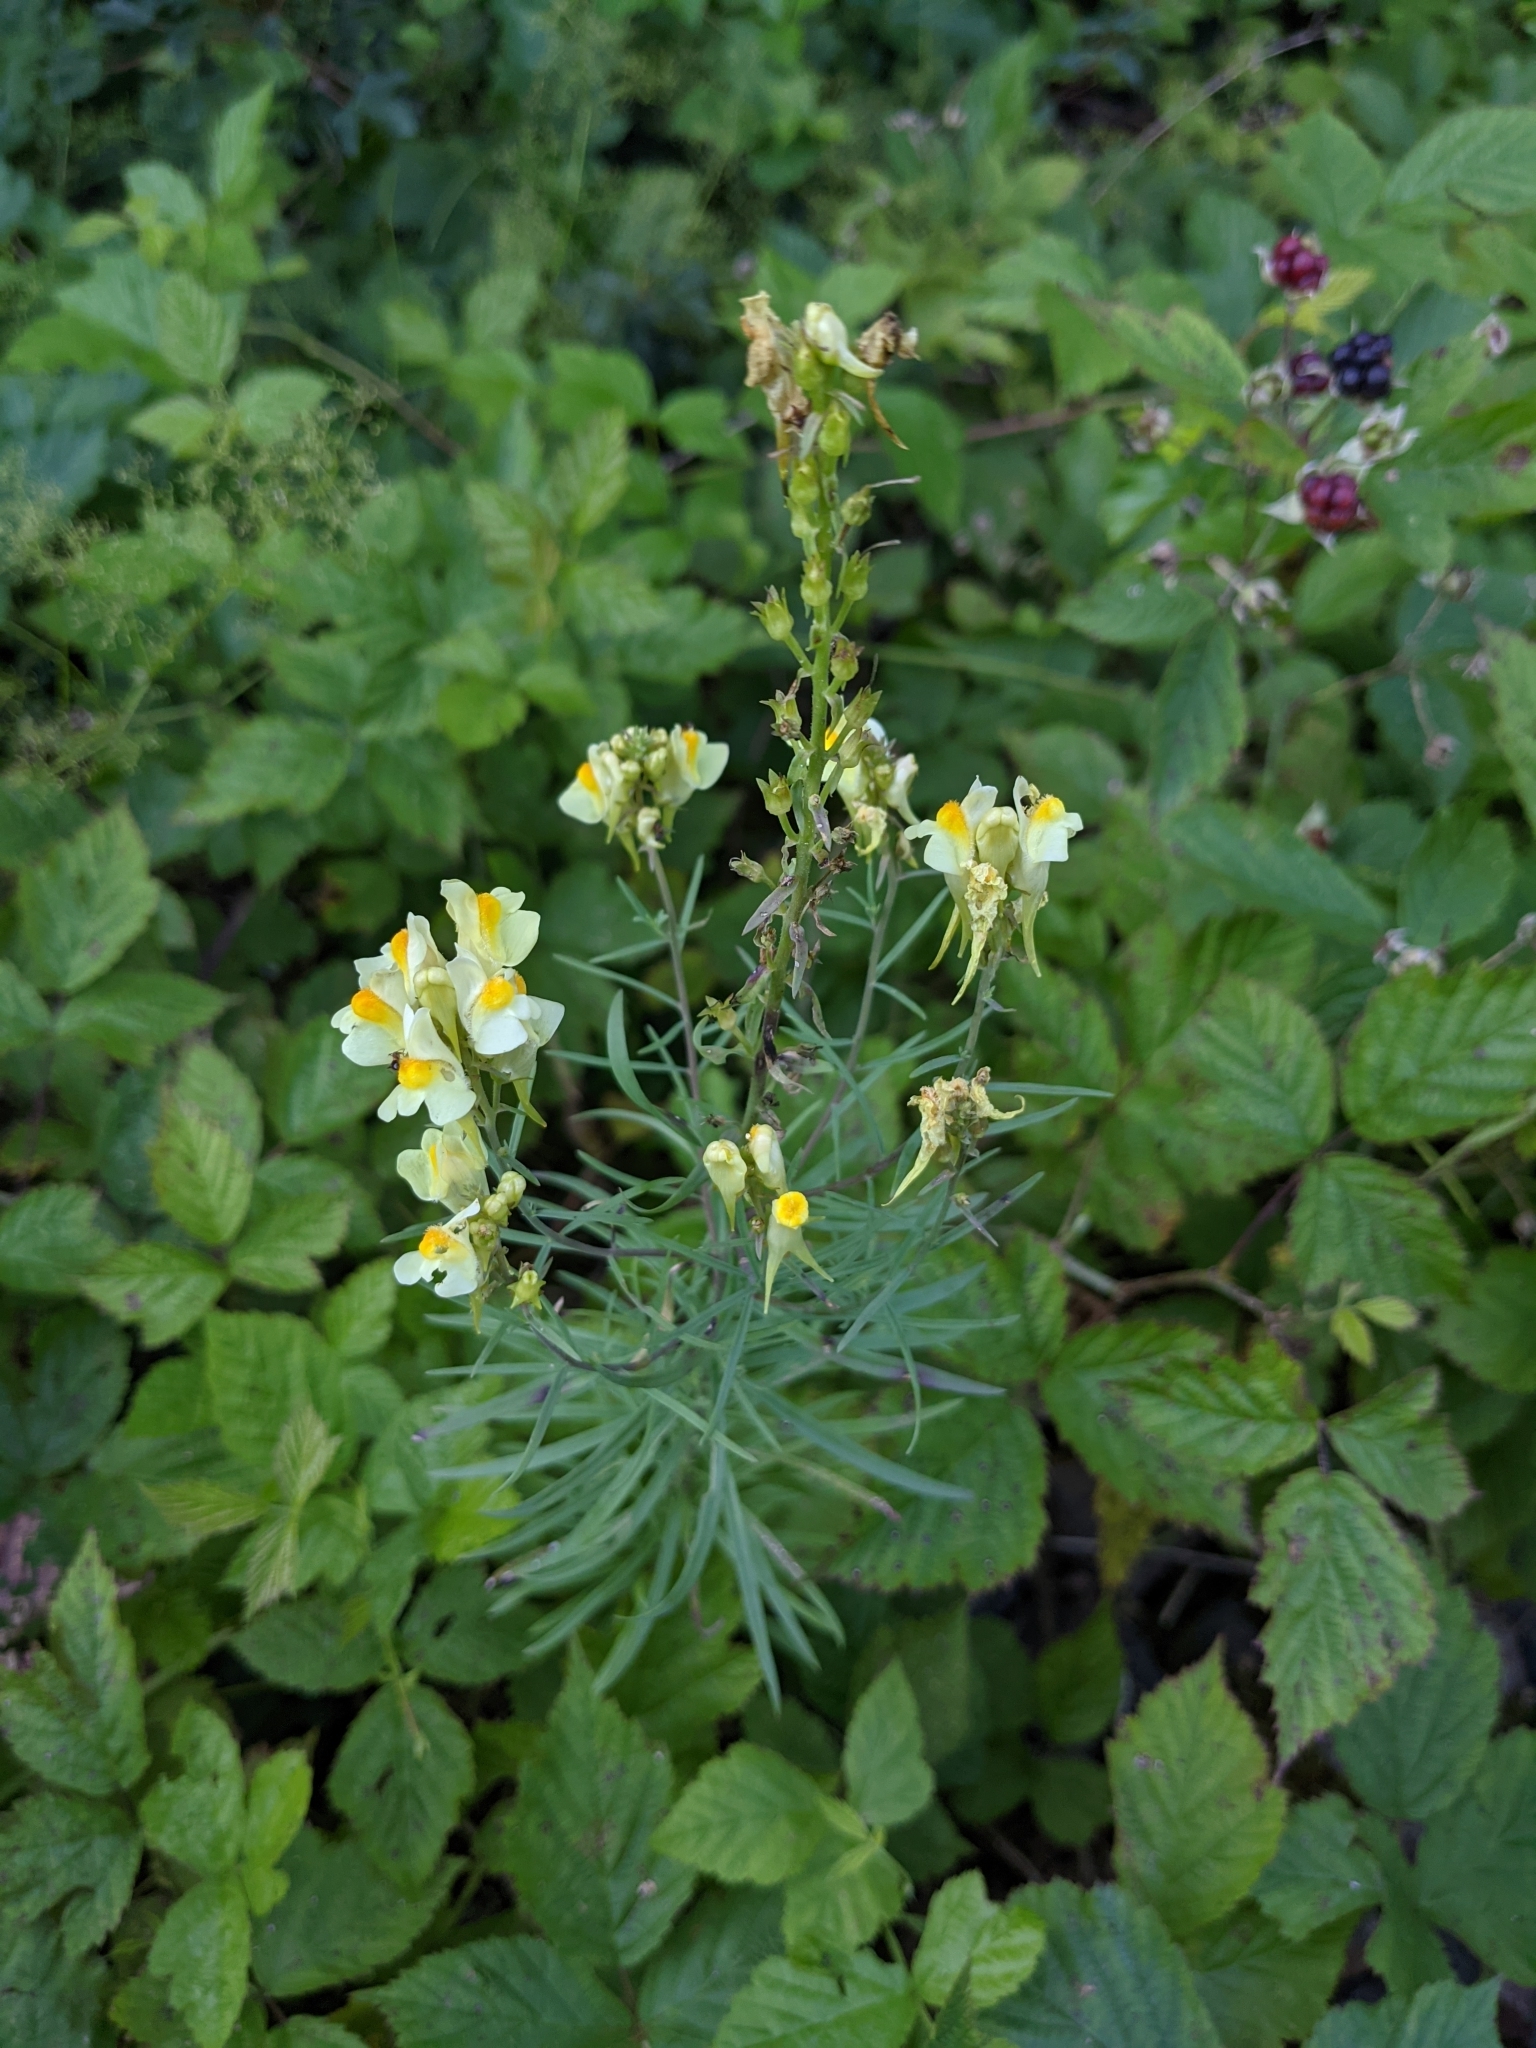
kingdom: Plantae
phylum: Tracheophyta
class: Magnoliopsida
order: Lamiales
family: Plantaginaceae
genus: Linaria
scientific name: Linaria vulgaris
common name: Butter and eggs
